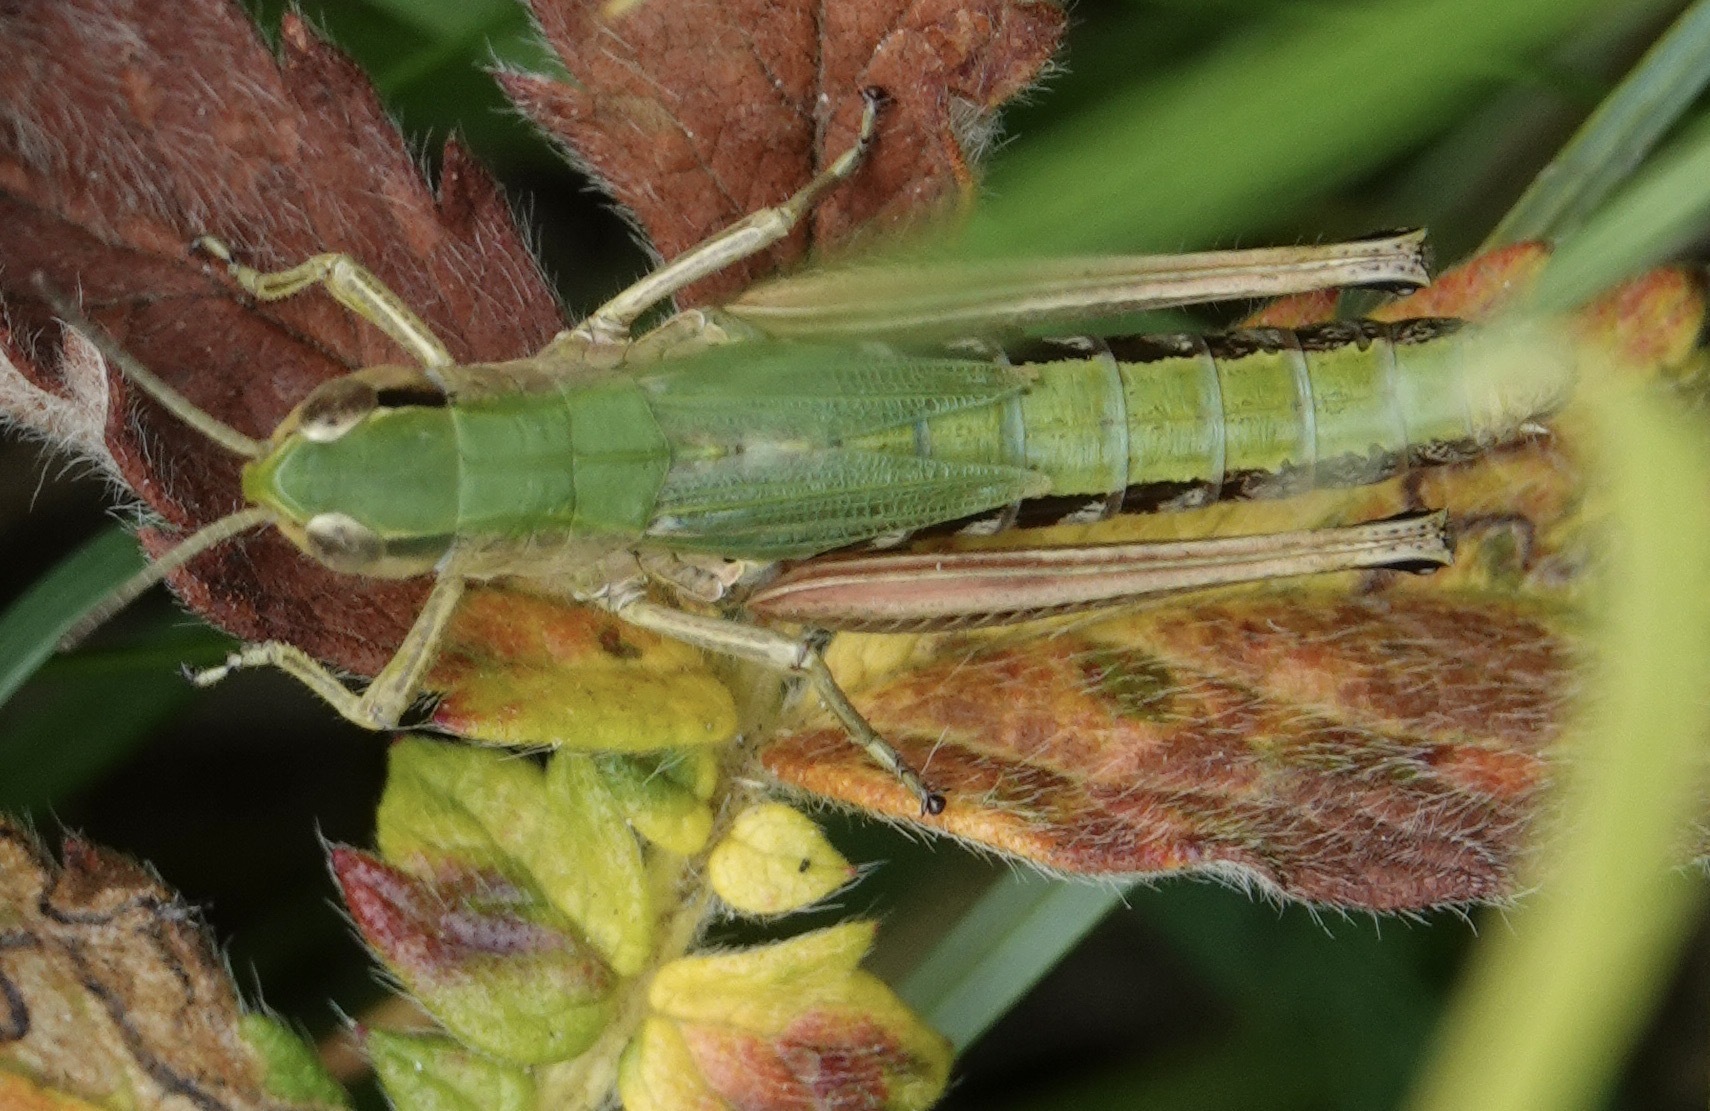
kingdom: Animalia
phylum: Arthropoda
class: Insecta
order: Orthoptera
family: Acrididae
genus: Pseudochorthippus
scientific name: Pseudochorthippus parallelus
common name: Meadow grasshopper
